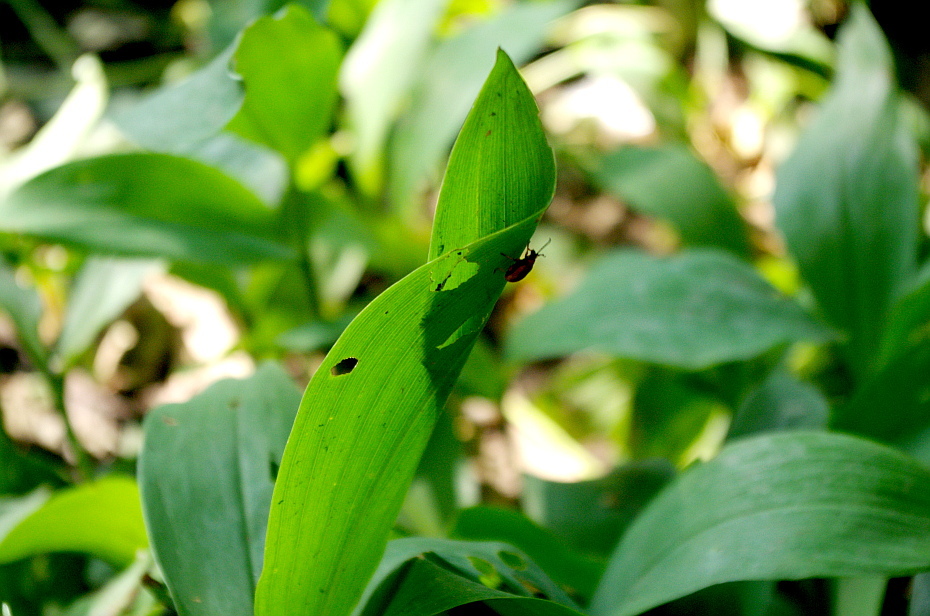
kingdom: Plantae
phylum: Tracheophyta
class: Liliopsida
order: Asparagales
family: Asparagaceae
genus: Convallaria
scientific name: Convallaria majalis
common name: Lily-of-the-valley
